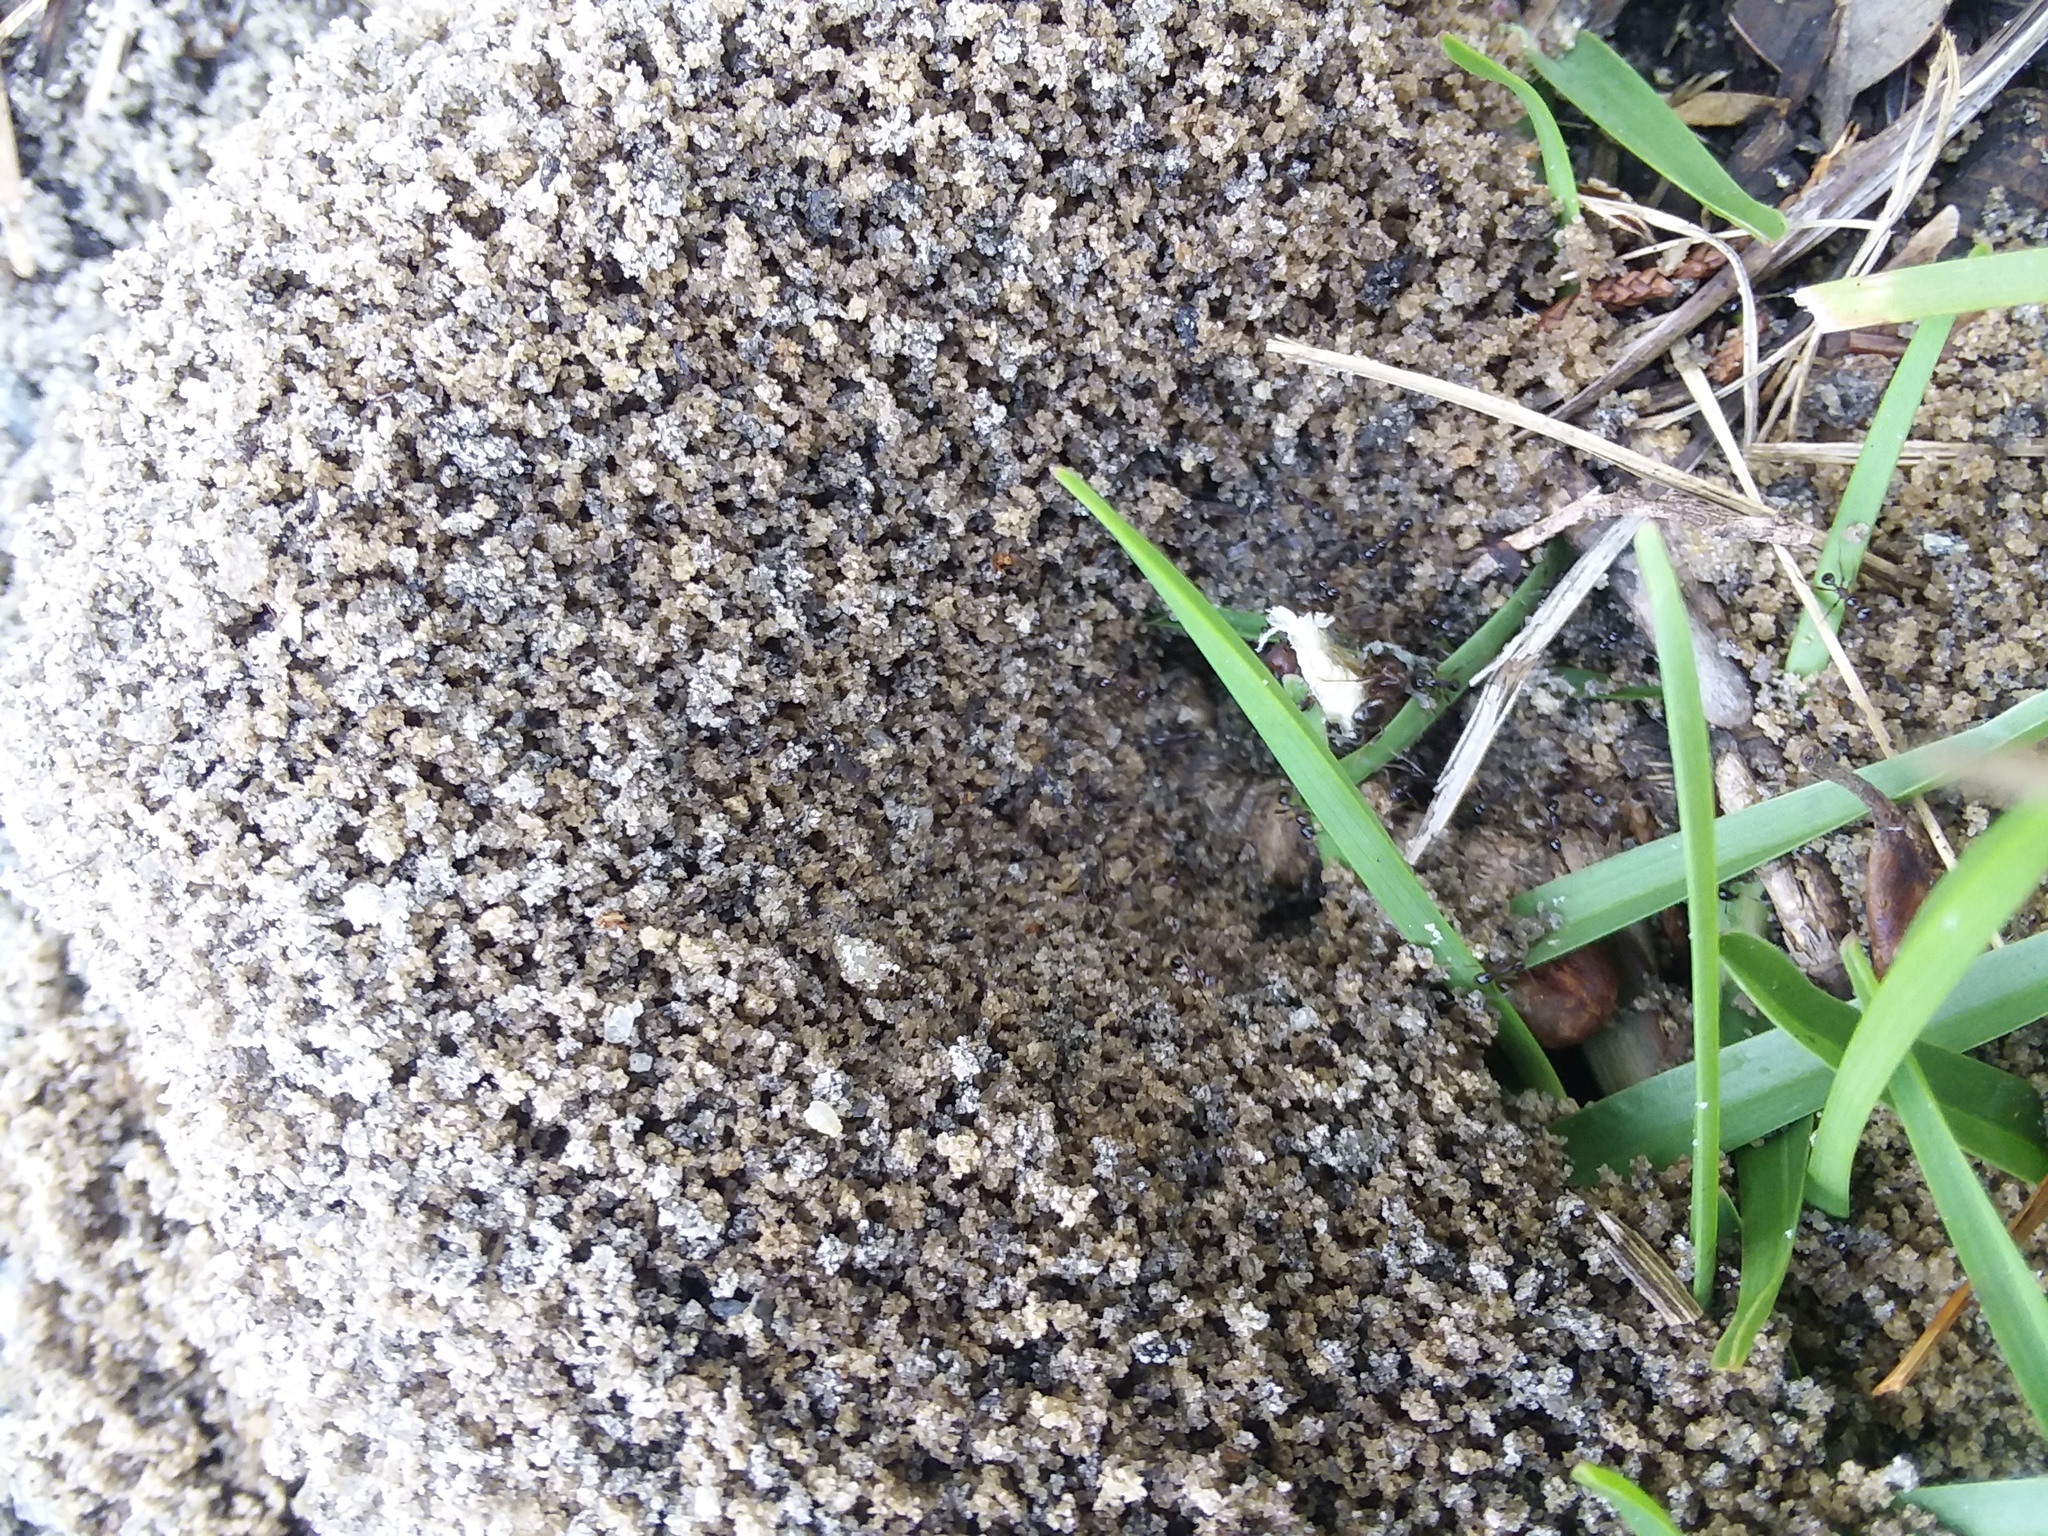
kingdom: Animalia
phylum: Arthropoda
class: Insecta
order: Hymenoptera
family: Formicidae
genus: Pheidole
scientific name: Pheidole obscurithorax
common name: Obscure big-headed ant
